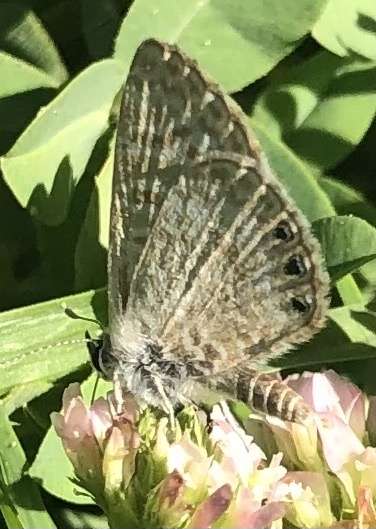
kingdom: Animalia
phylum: Arthropoda
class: Insecta
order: Lepidoptera
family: Lycaenidae
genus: Leptotes
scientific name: Leptotes trigemmatus
